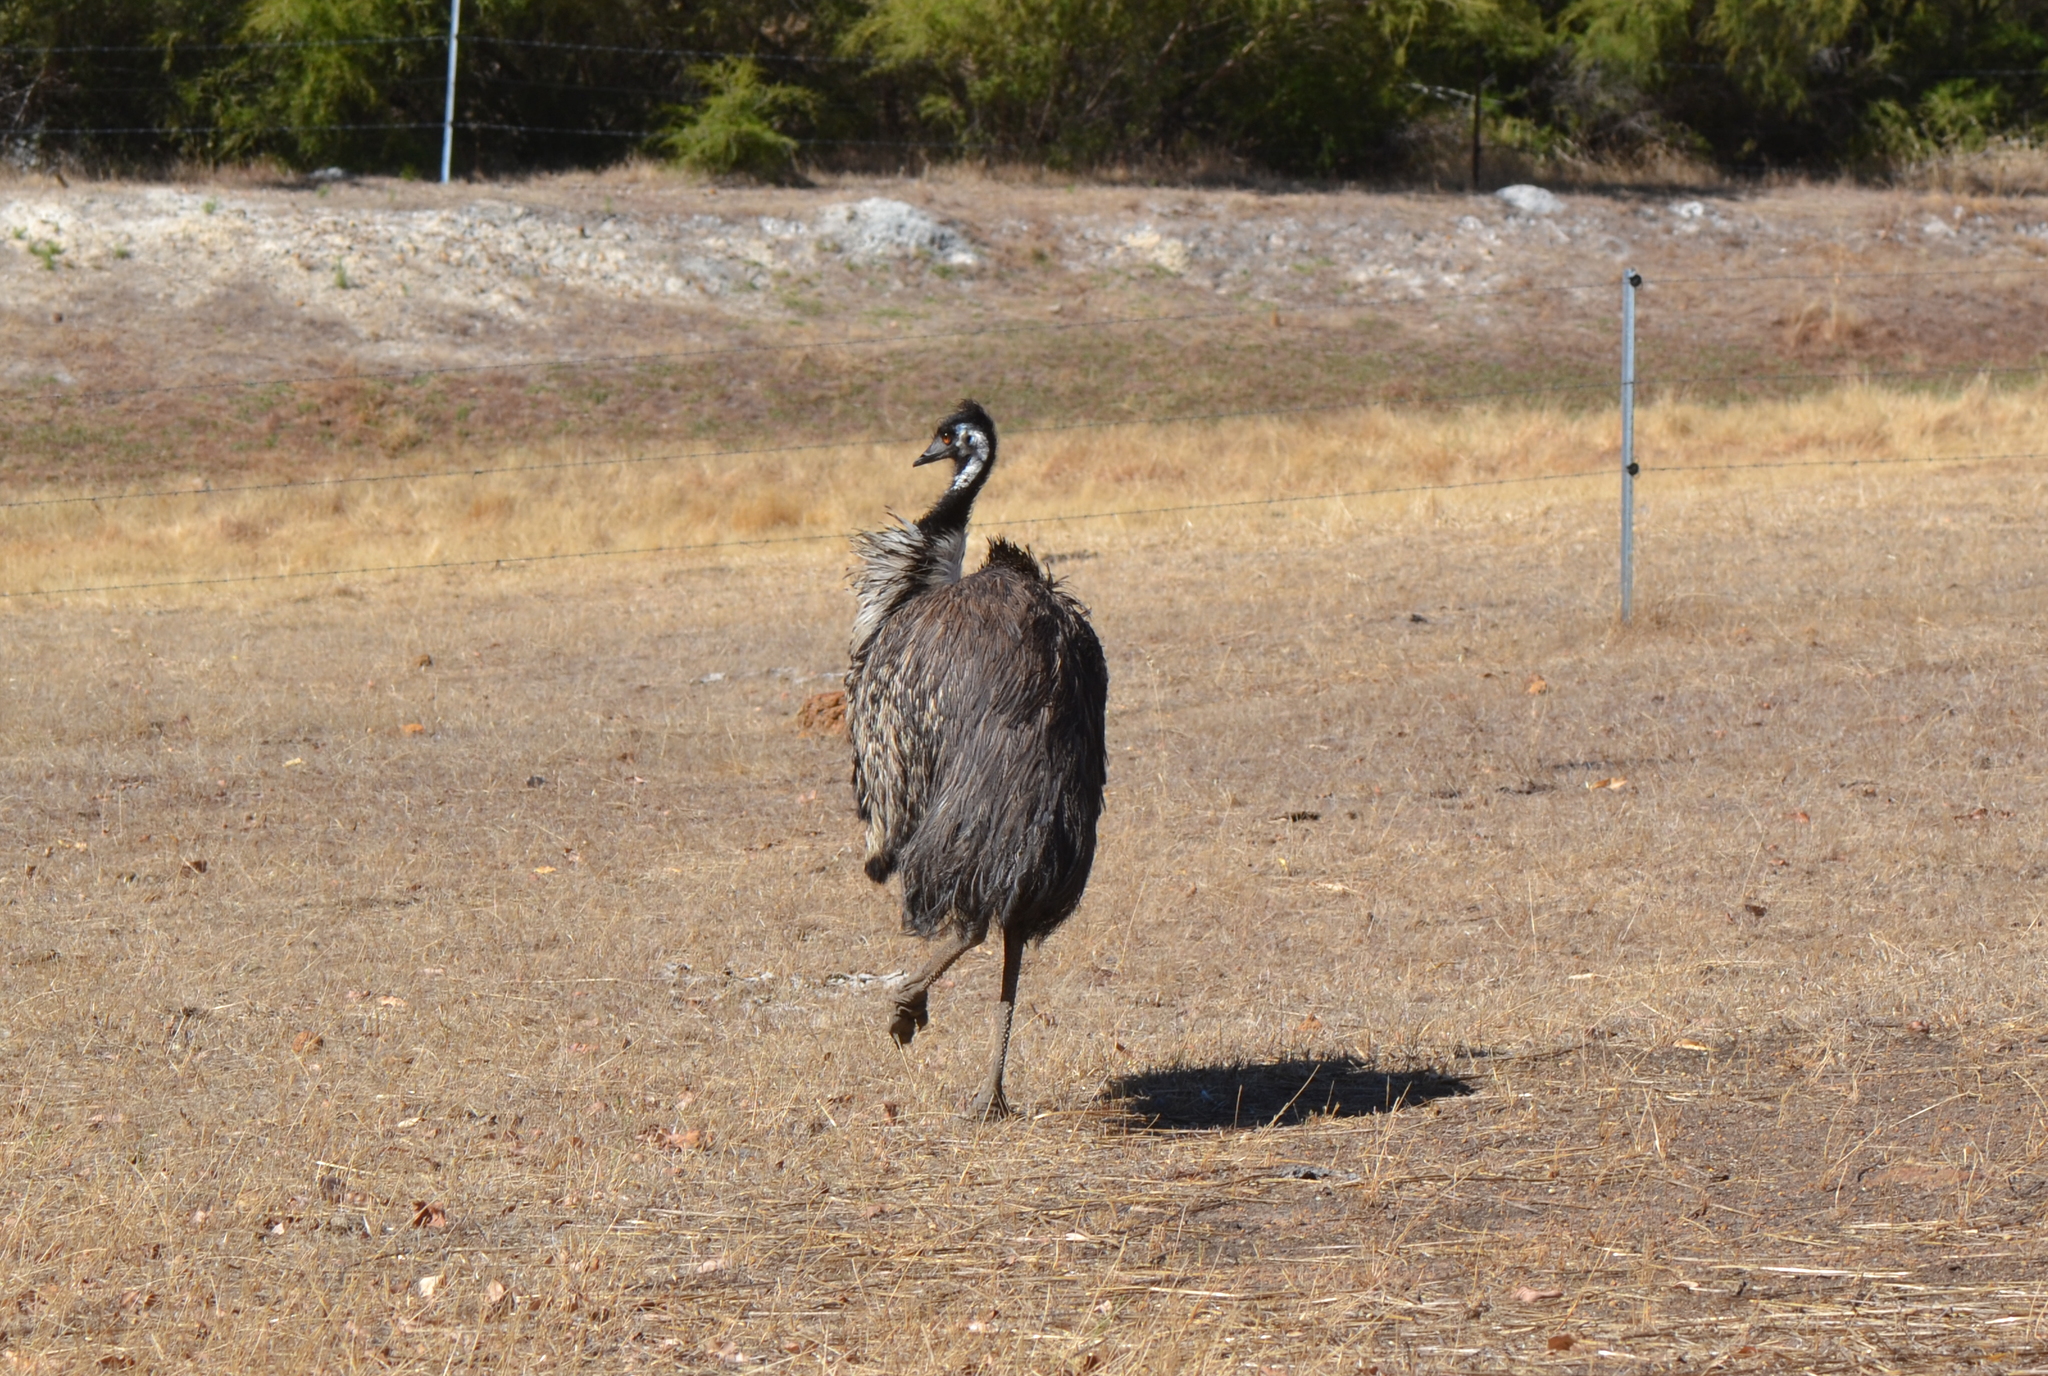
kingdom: Animalia
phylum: Chordata
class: Aves
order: Casuariiformes
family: Dromaiidae
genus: Dromaius
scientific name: Dromaius novaehollandiae
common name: Emu
